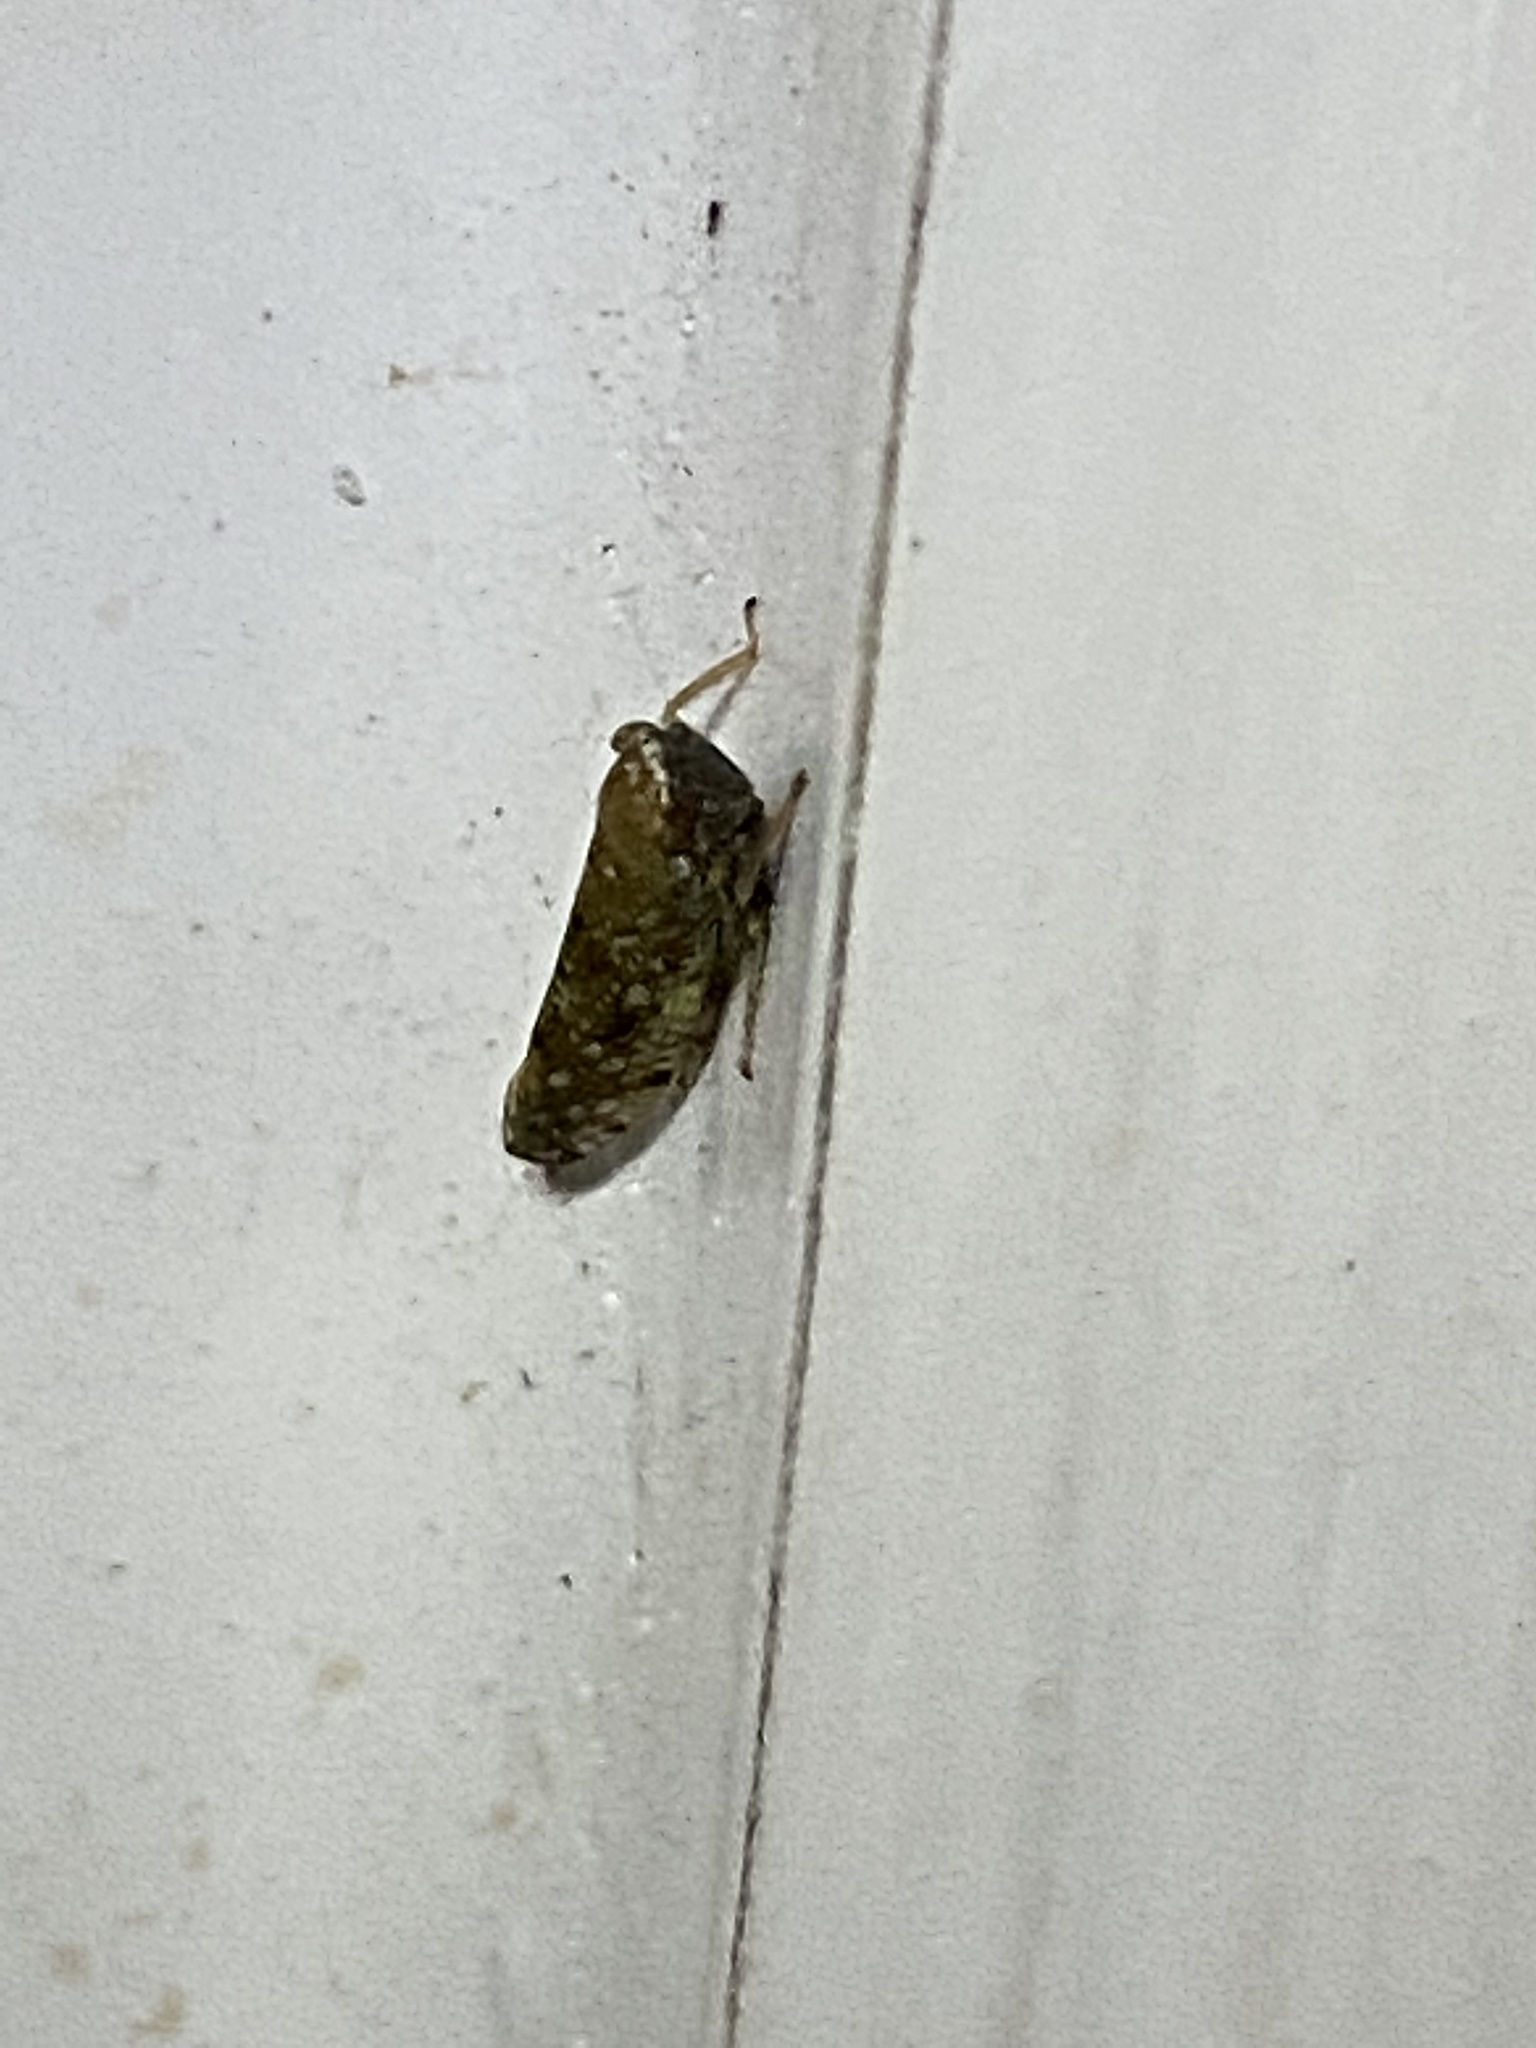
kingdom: Animalia
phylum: Arthropoda
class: Insecta
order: Hemiptera
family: Cicadellidae
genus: Orientus
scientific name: Orientus ishidae
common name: Japanese leafhopper
